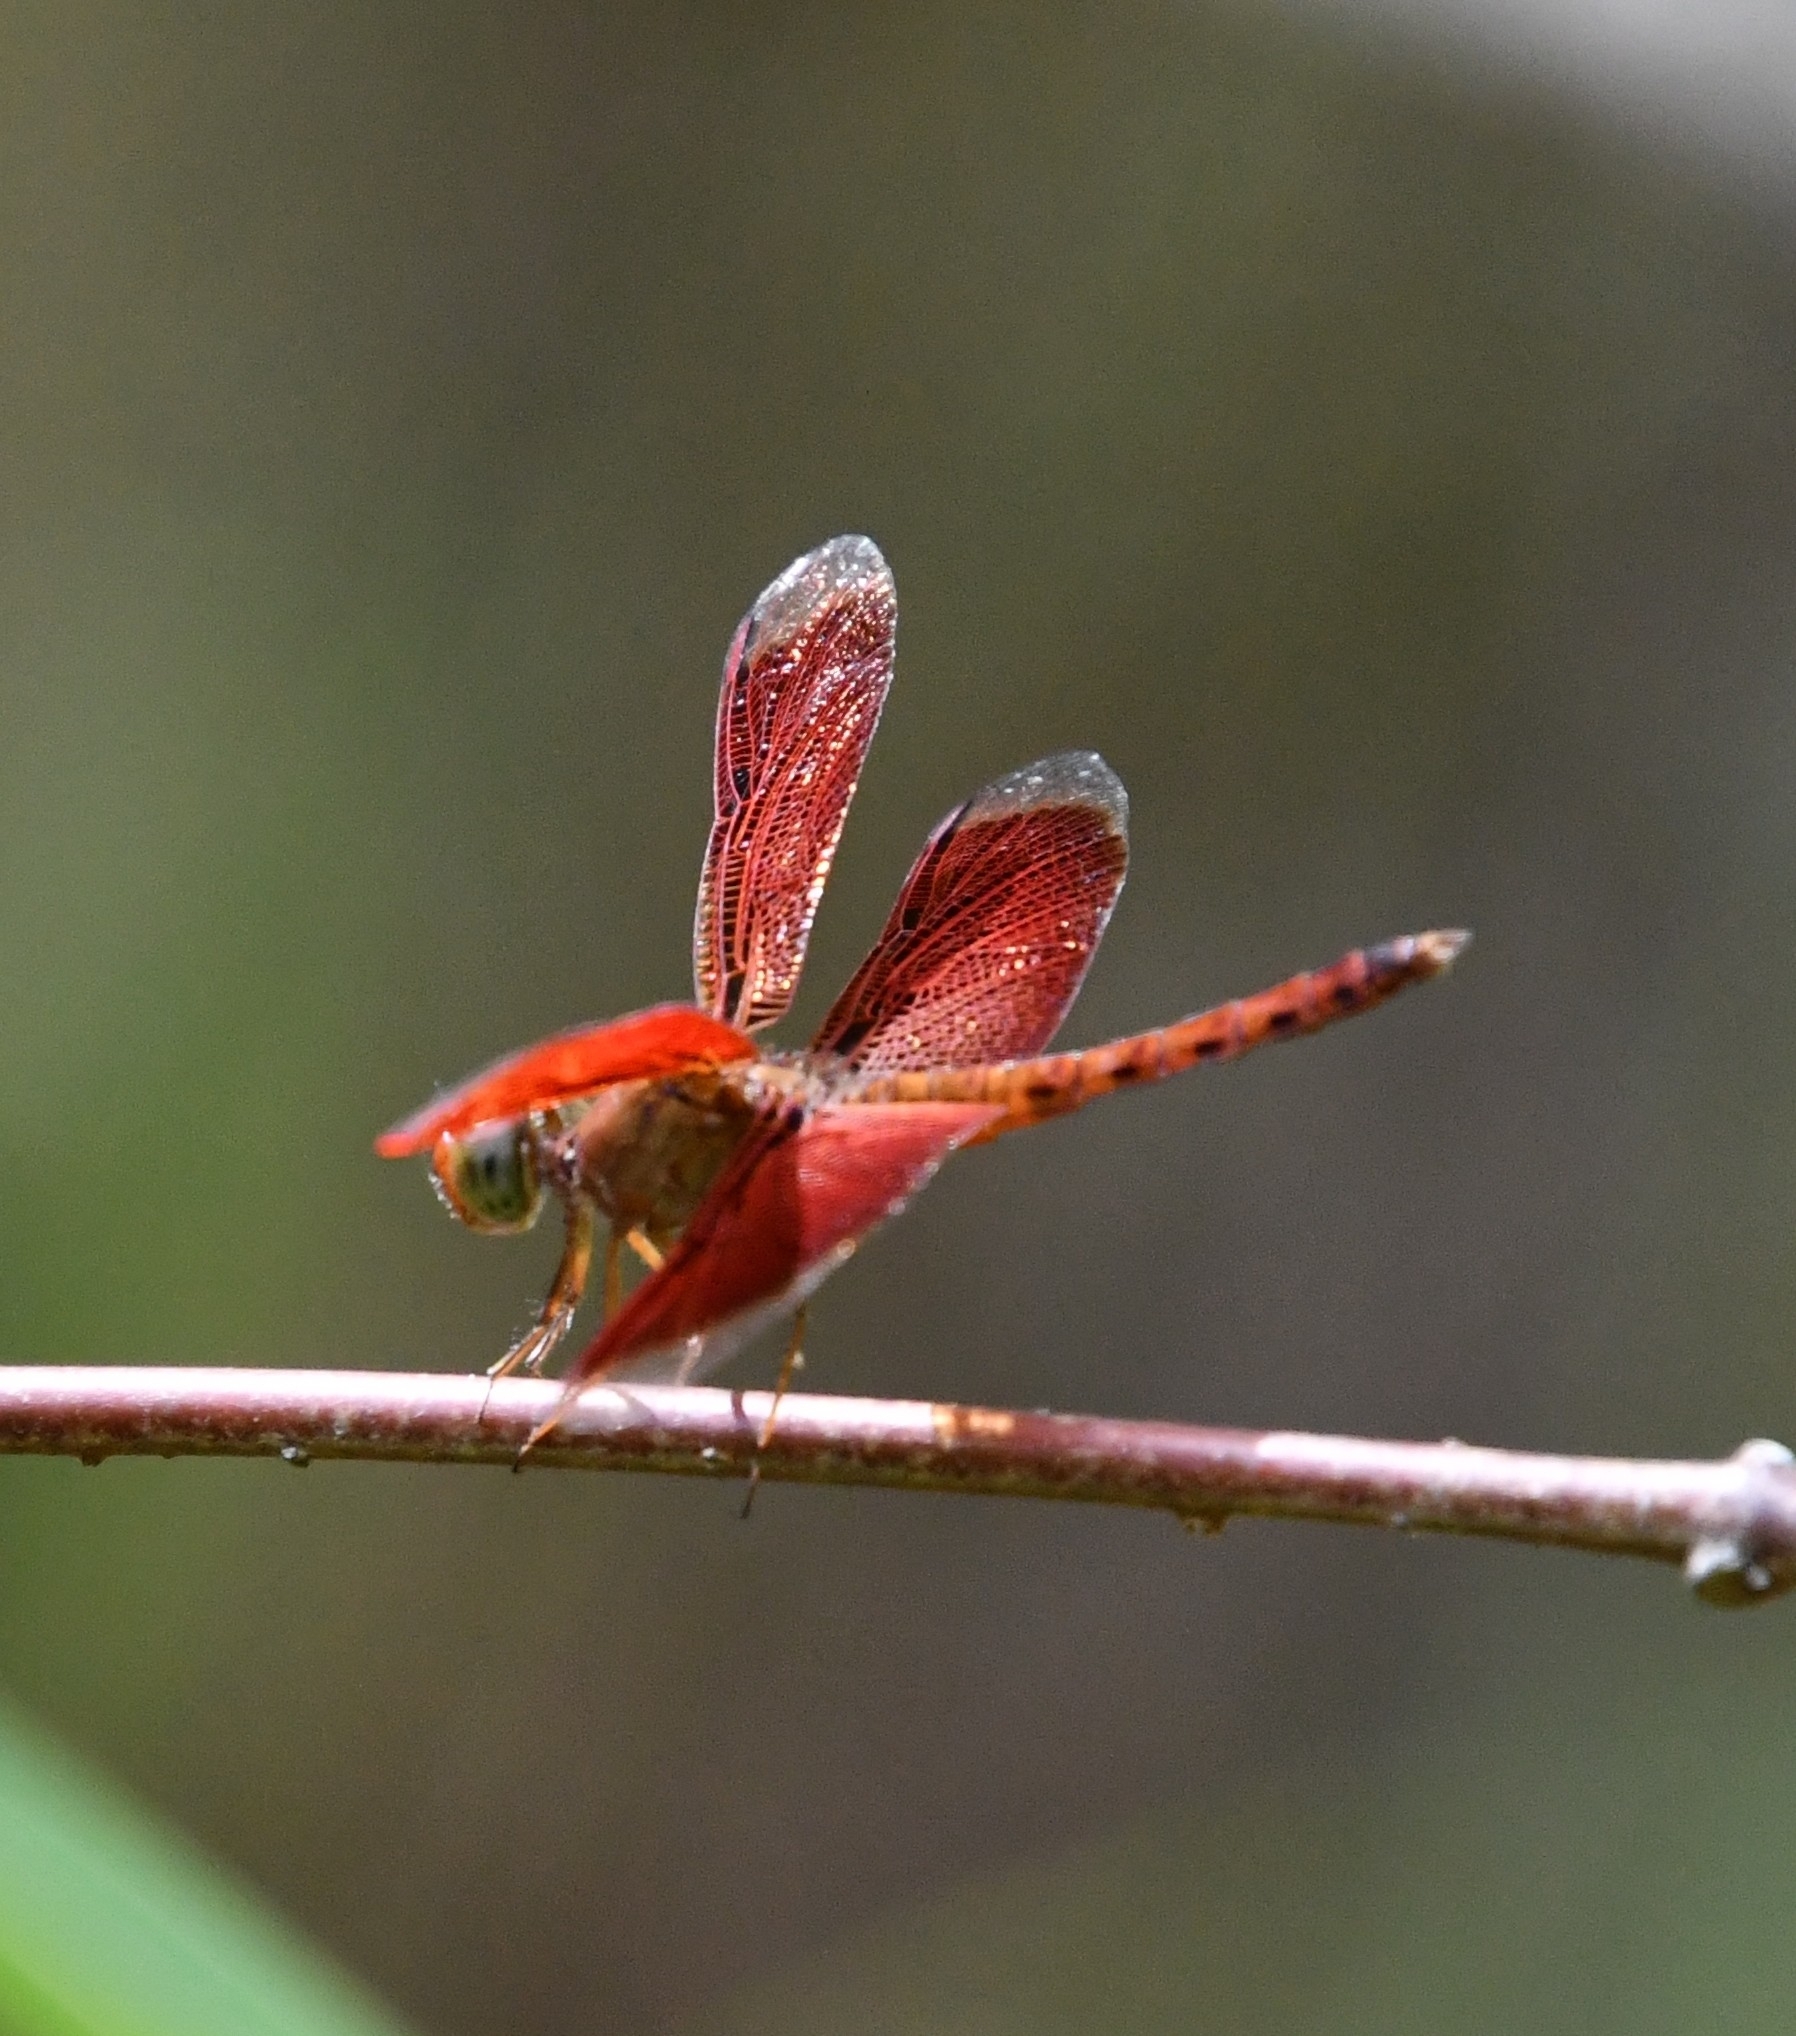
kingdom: Animalia
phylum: Arthropoda
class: Insecta
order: Odonata
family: Libellulidae
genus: Neurothemis
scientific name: Neurothemis fluctuans
